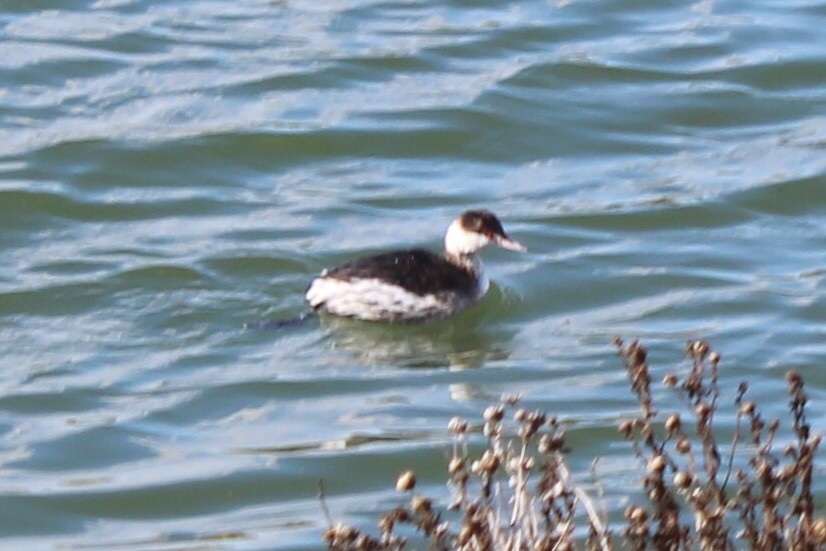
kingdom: Animalia
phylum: Chordata
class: Aves
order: Podicipediformes
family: Podicipedidae
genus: Podiceps
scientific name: Podiceps auritus
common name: Horned grebe
